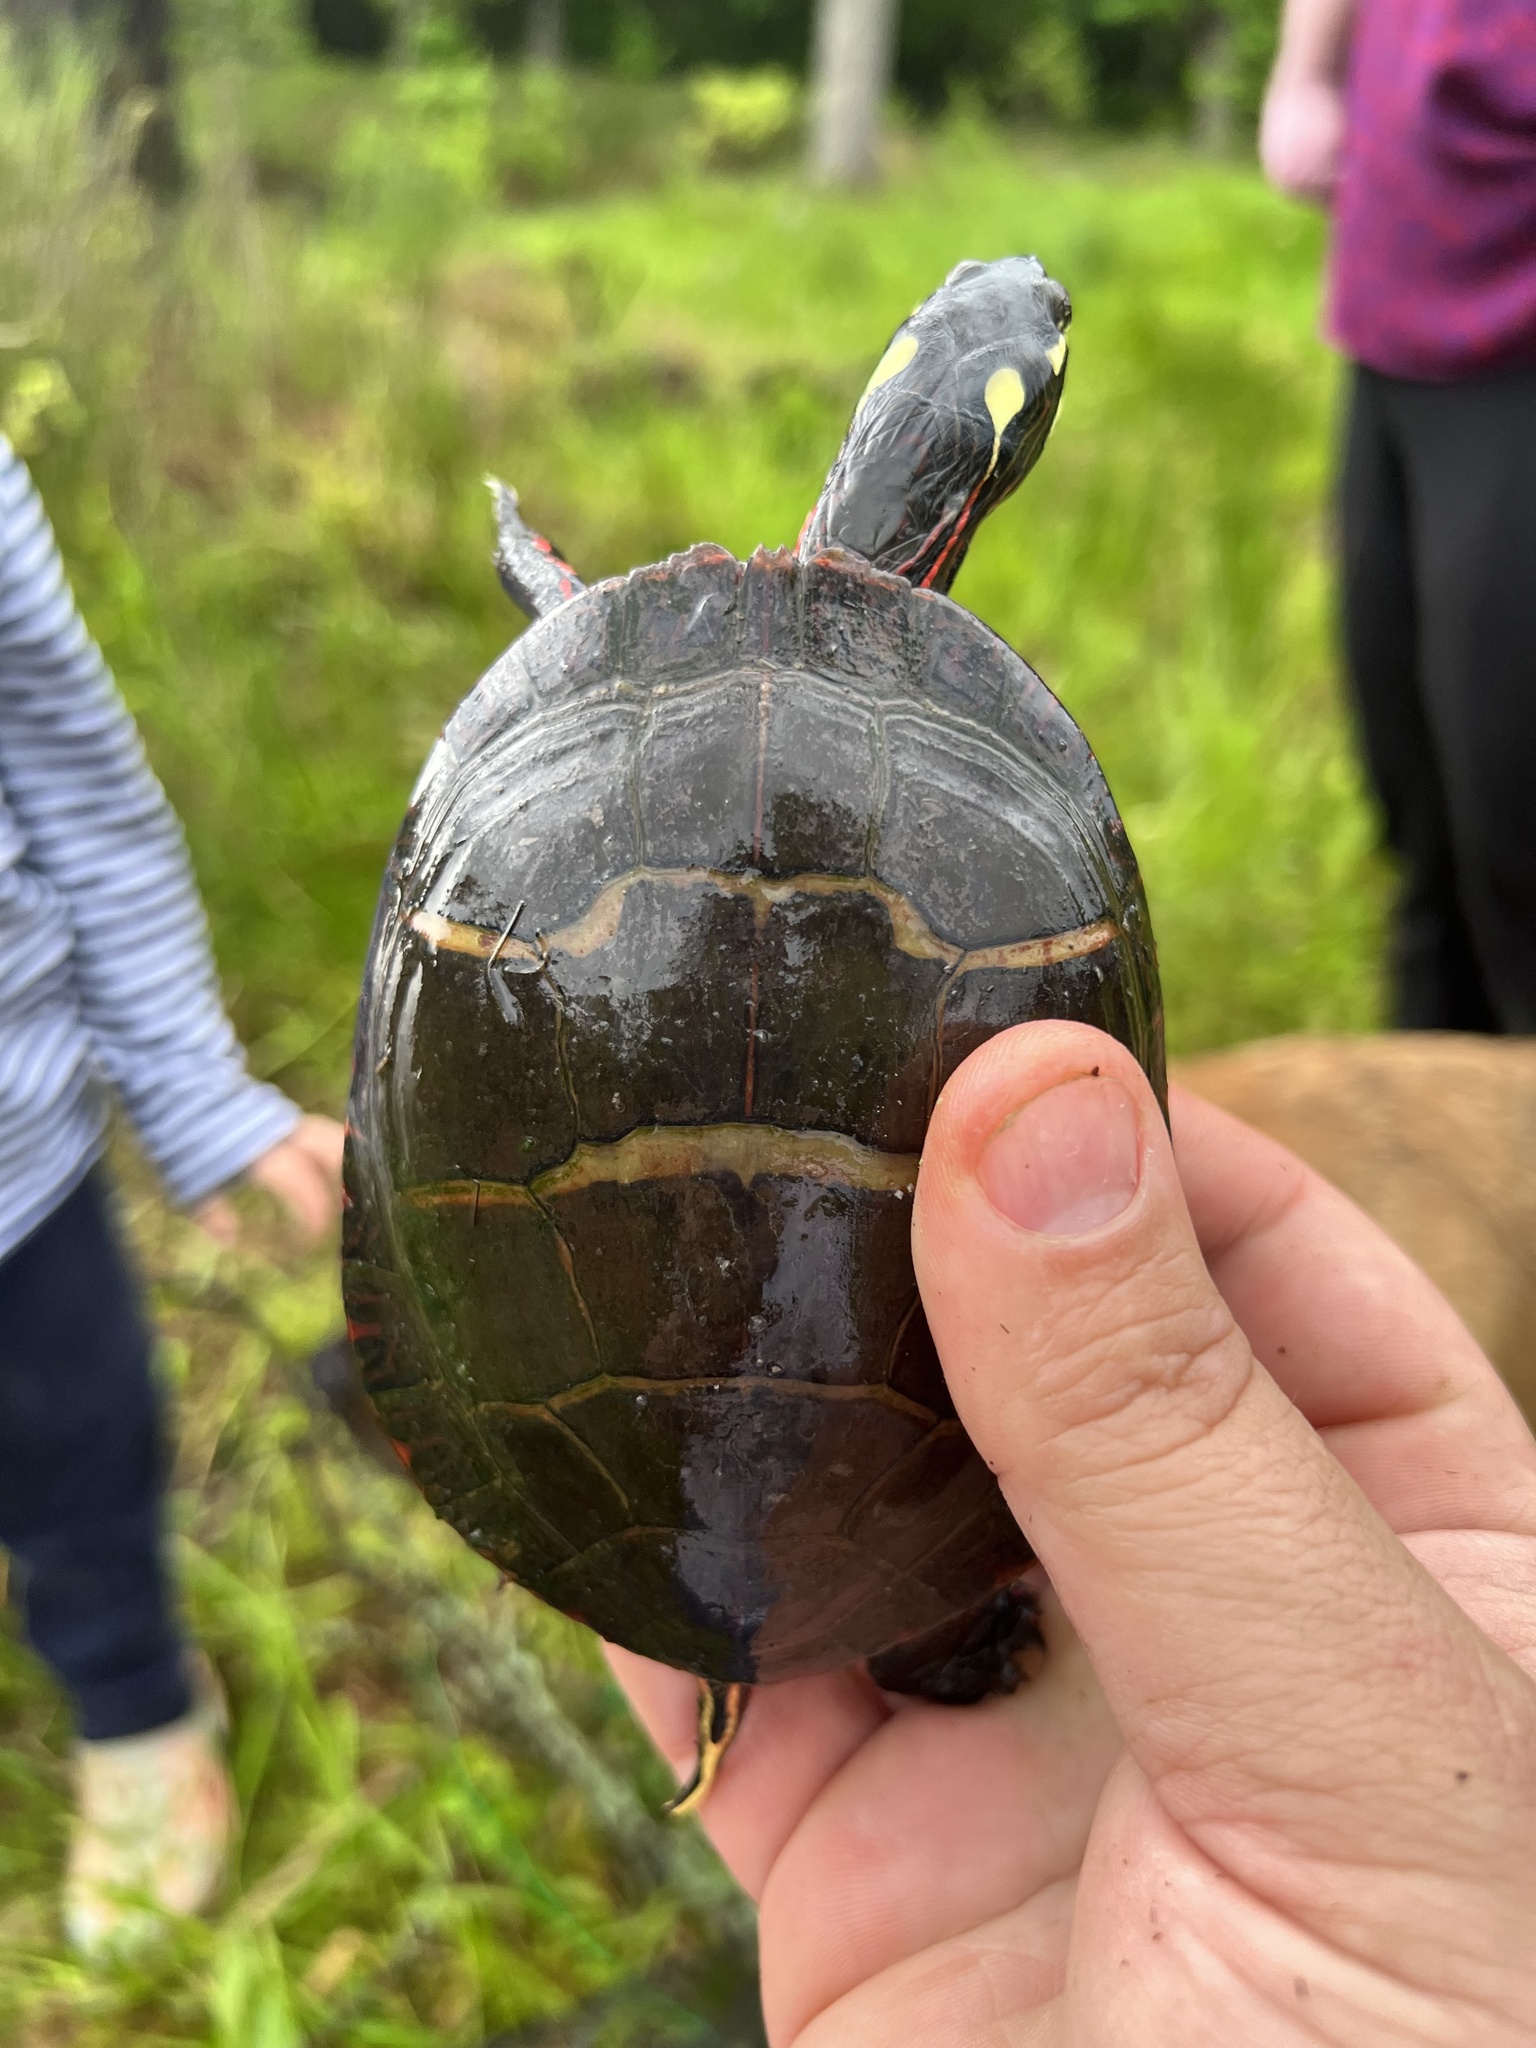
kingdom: Animalia
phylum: Chordata
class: Testudines
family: Emydidae
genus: Chrysemys
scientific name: Chrysemys picta
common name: Painted turtle
